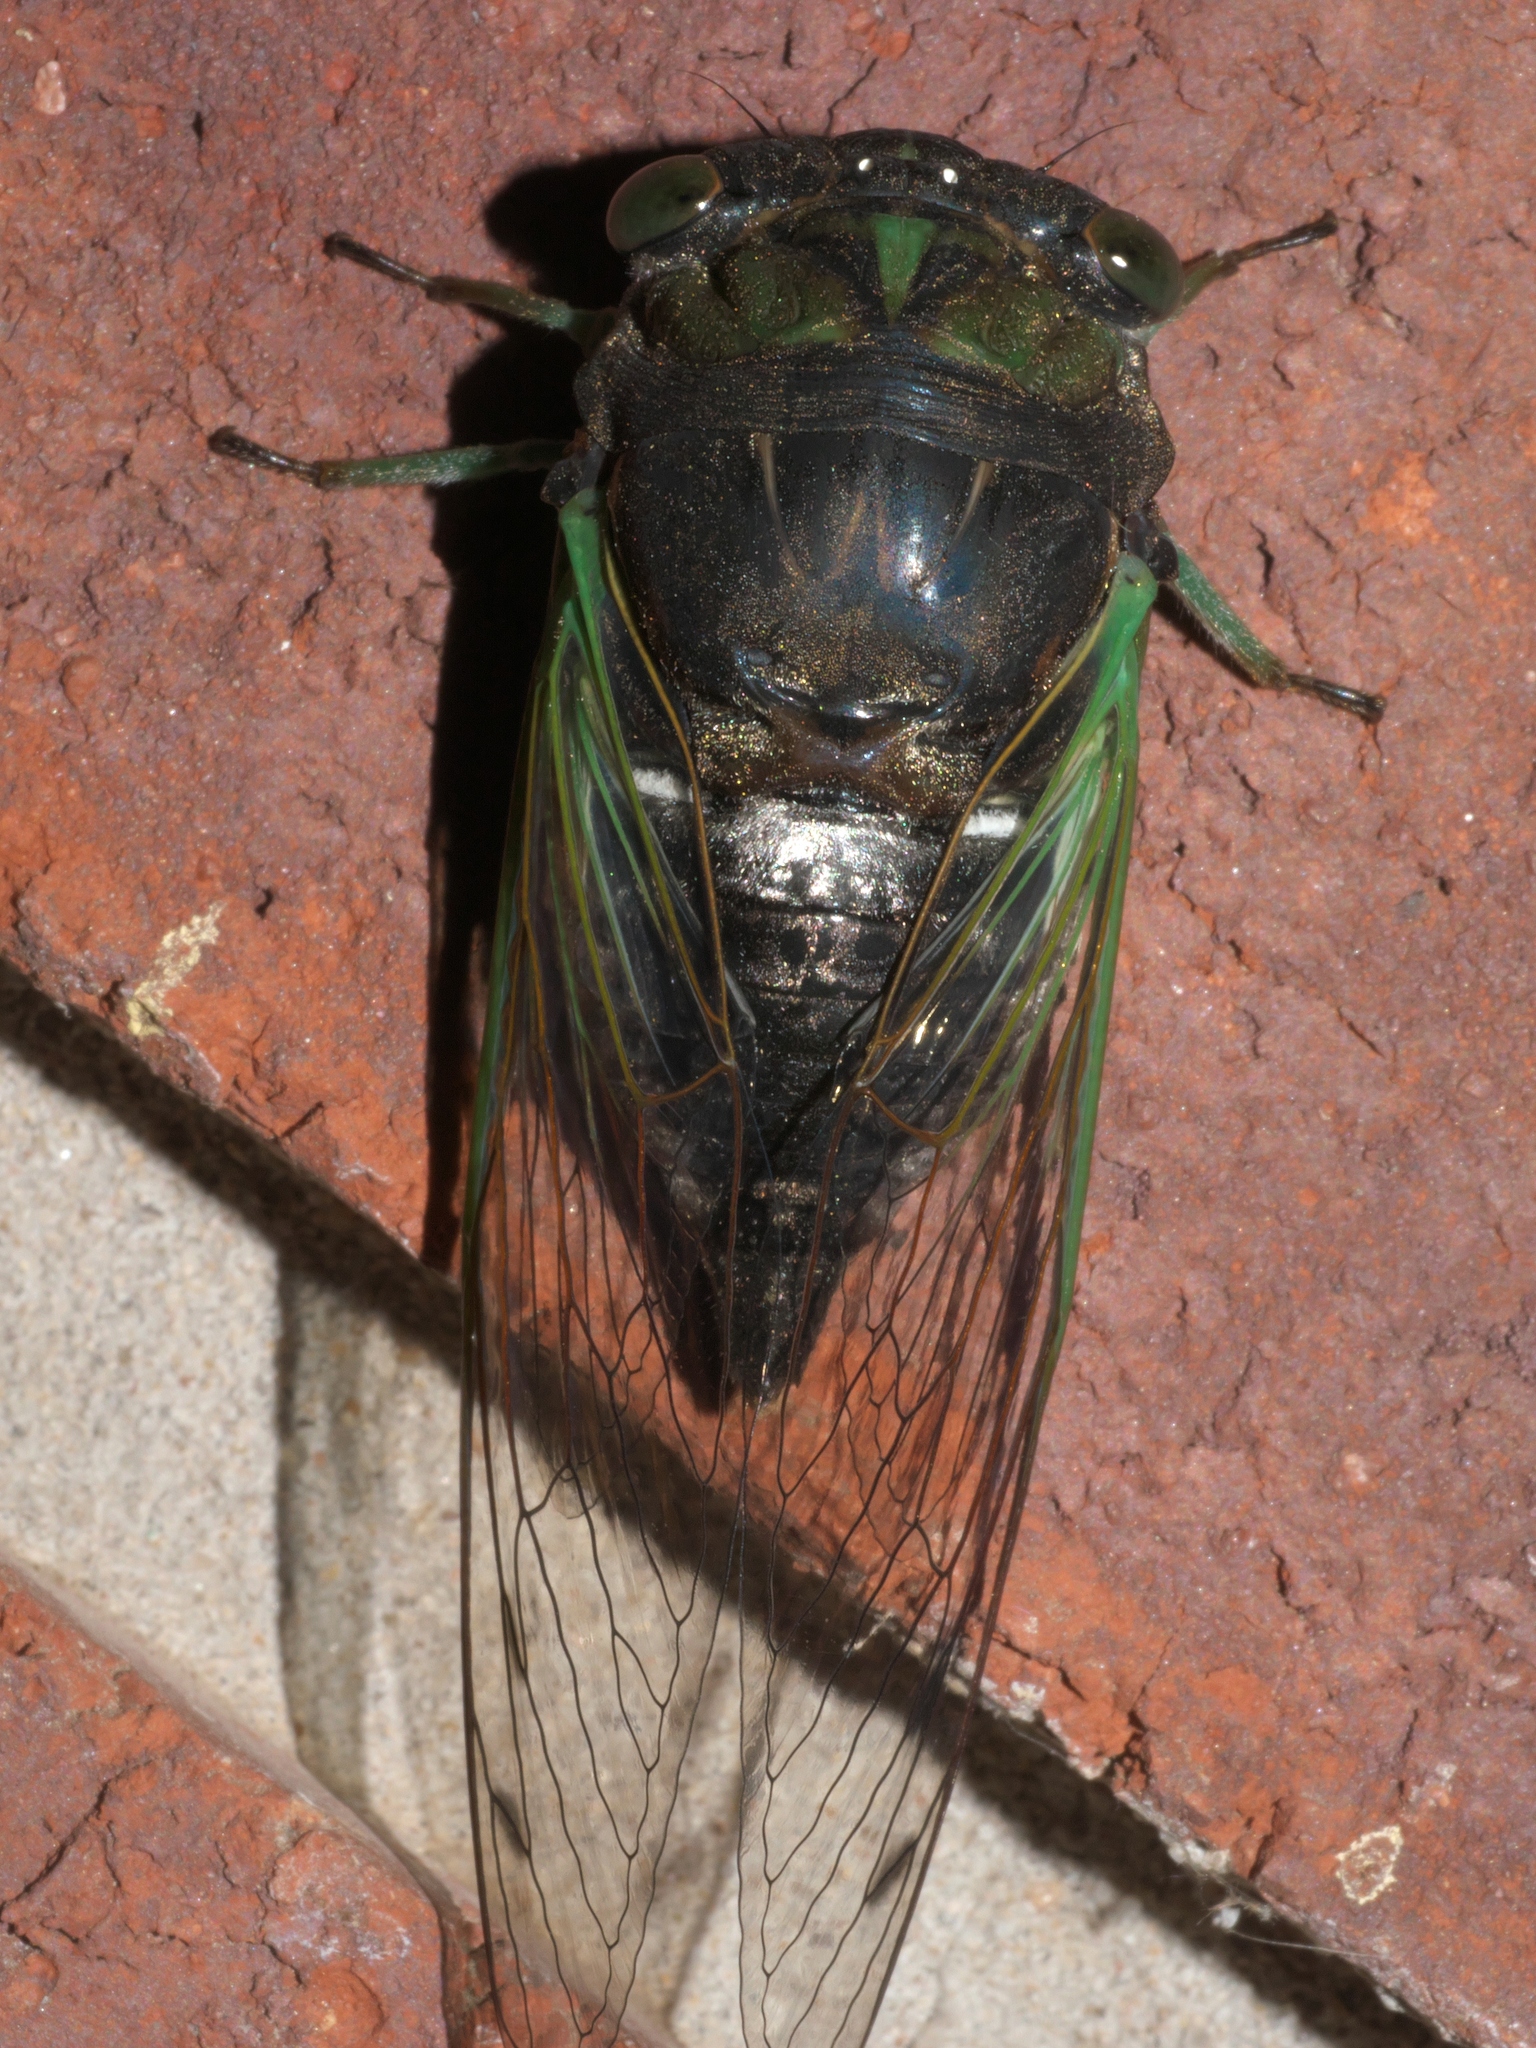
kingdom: Animalia
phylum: Arthropoda
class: Insecta
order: Hemiptera
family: Cicadidae
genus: Neotibicen
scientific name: Neotibicen tibicen
